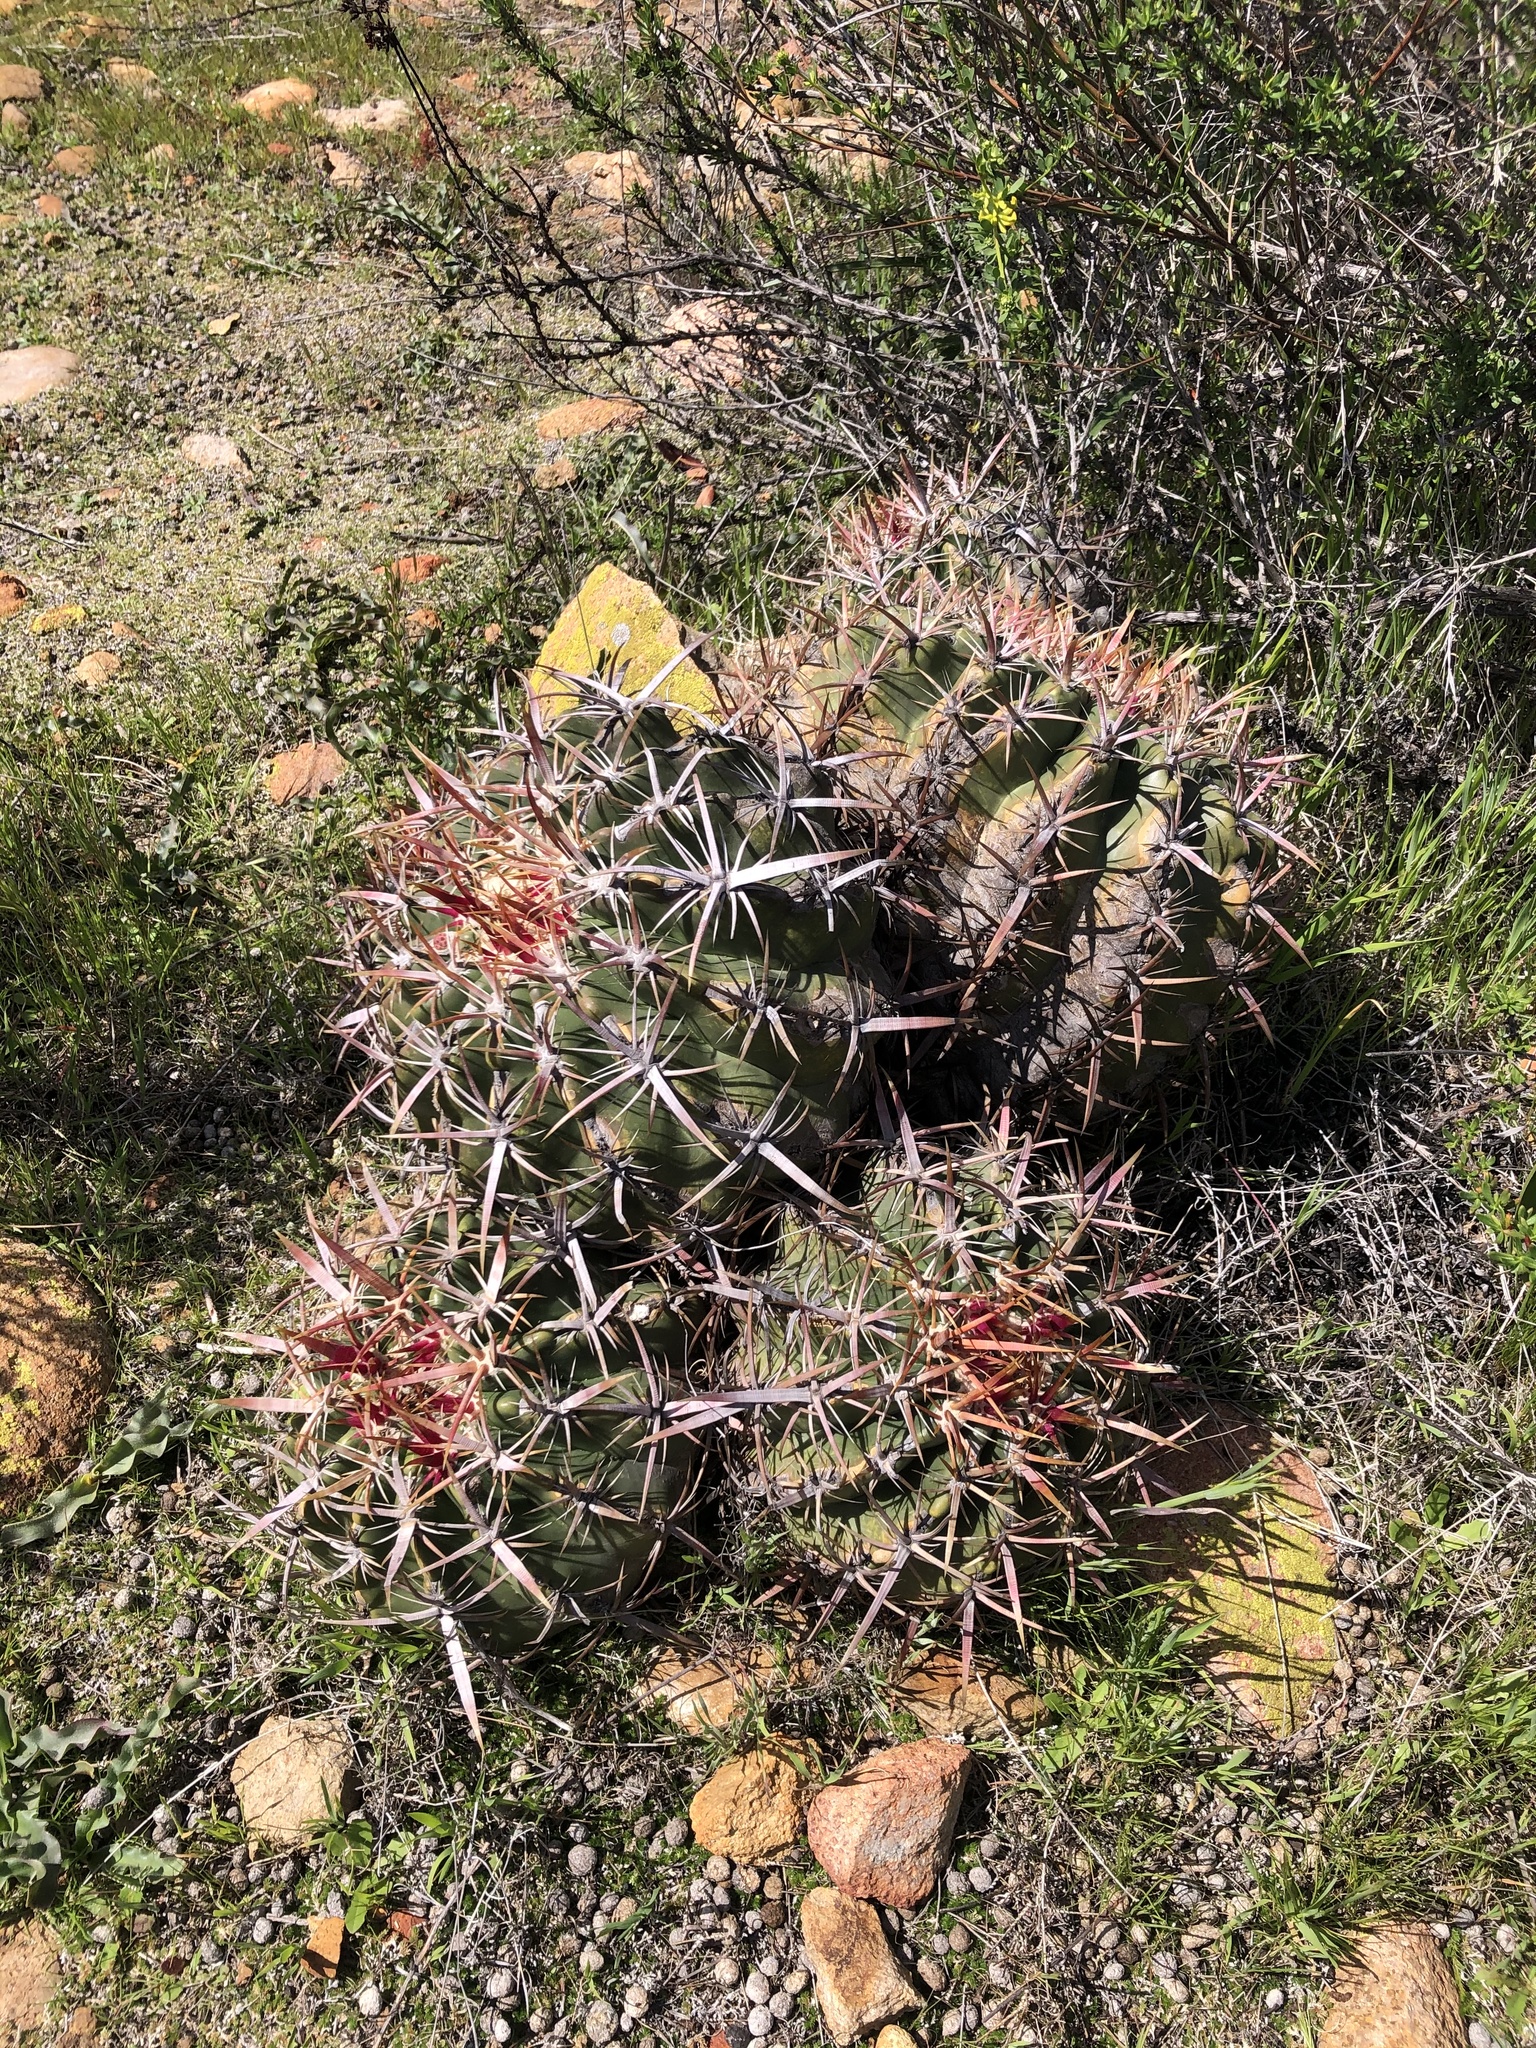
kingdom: Plantae
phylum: Tracheophyta
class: Magnoliopsida
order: Caryophyllales
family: Cactaceae
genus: Ferocactus
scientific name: Ferocactus viridescens
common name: San diego barrel cactus
